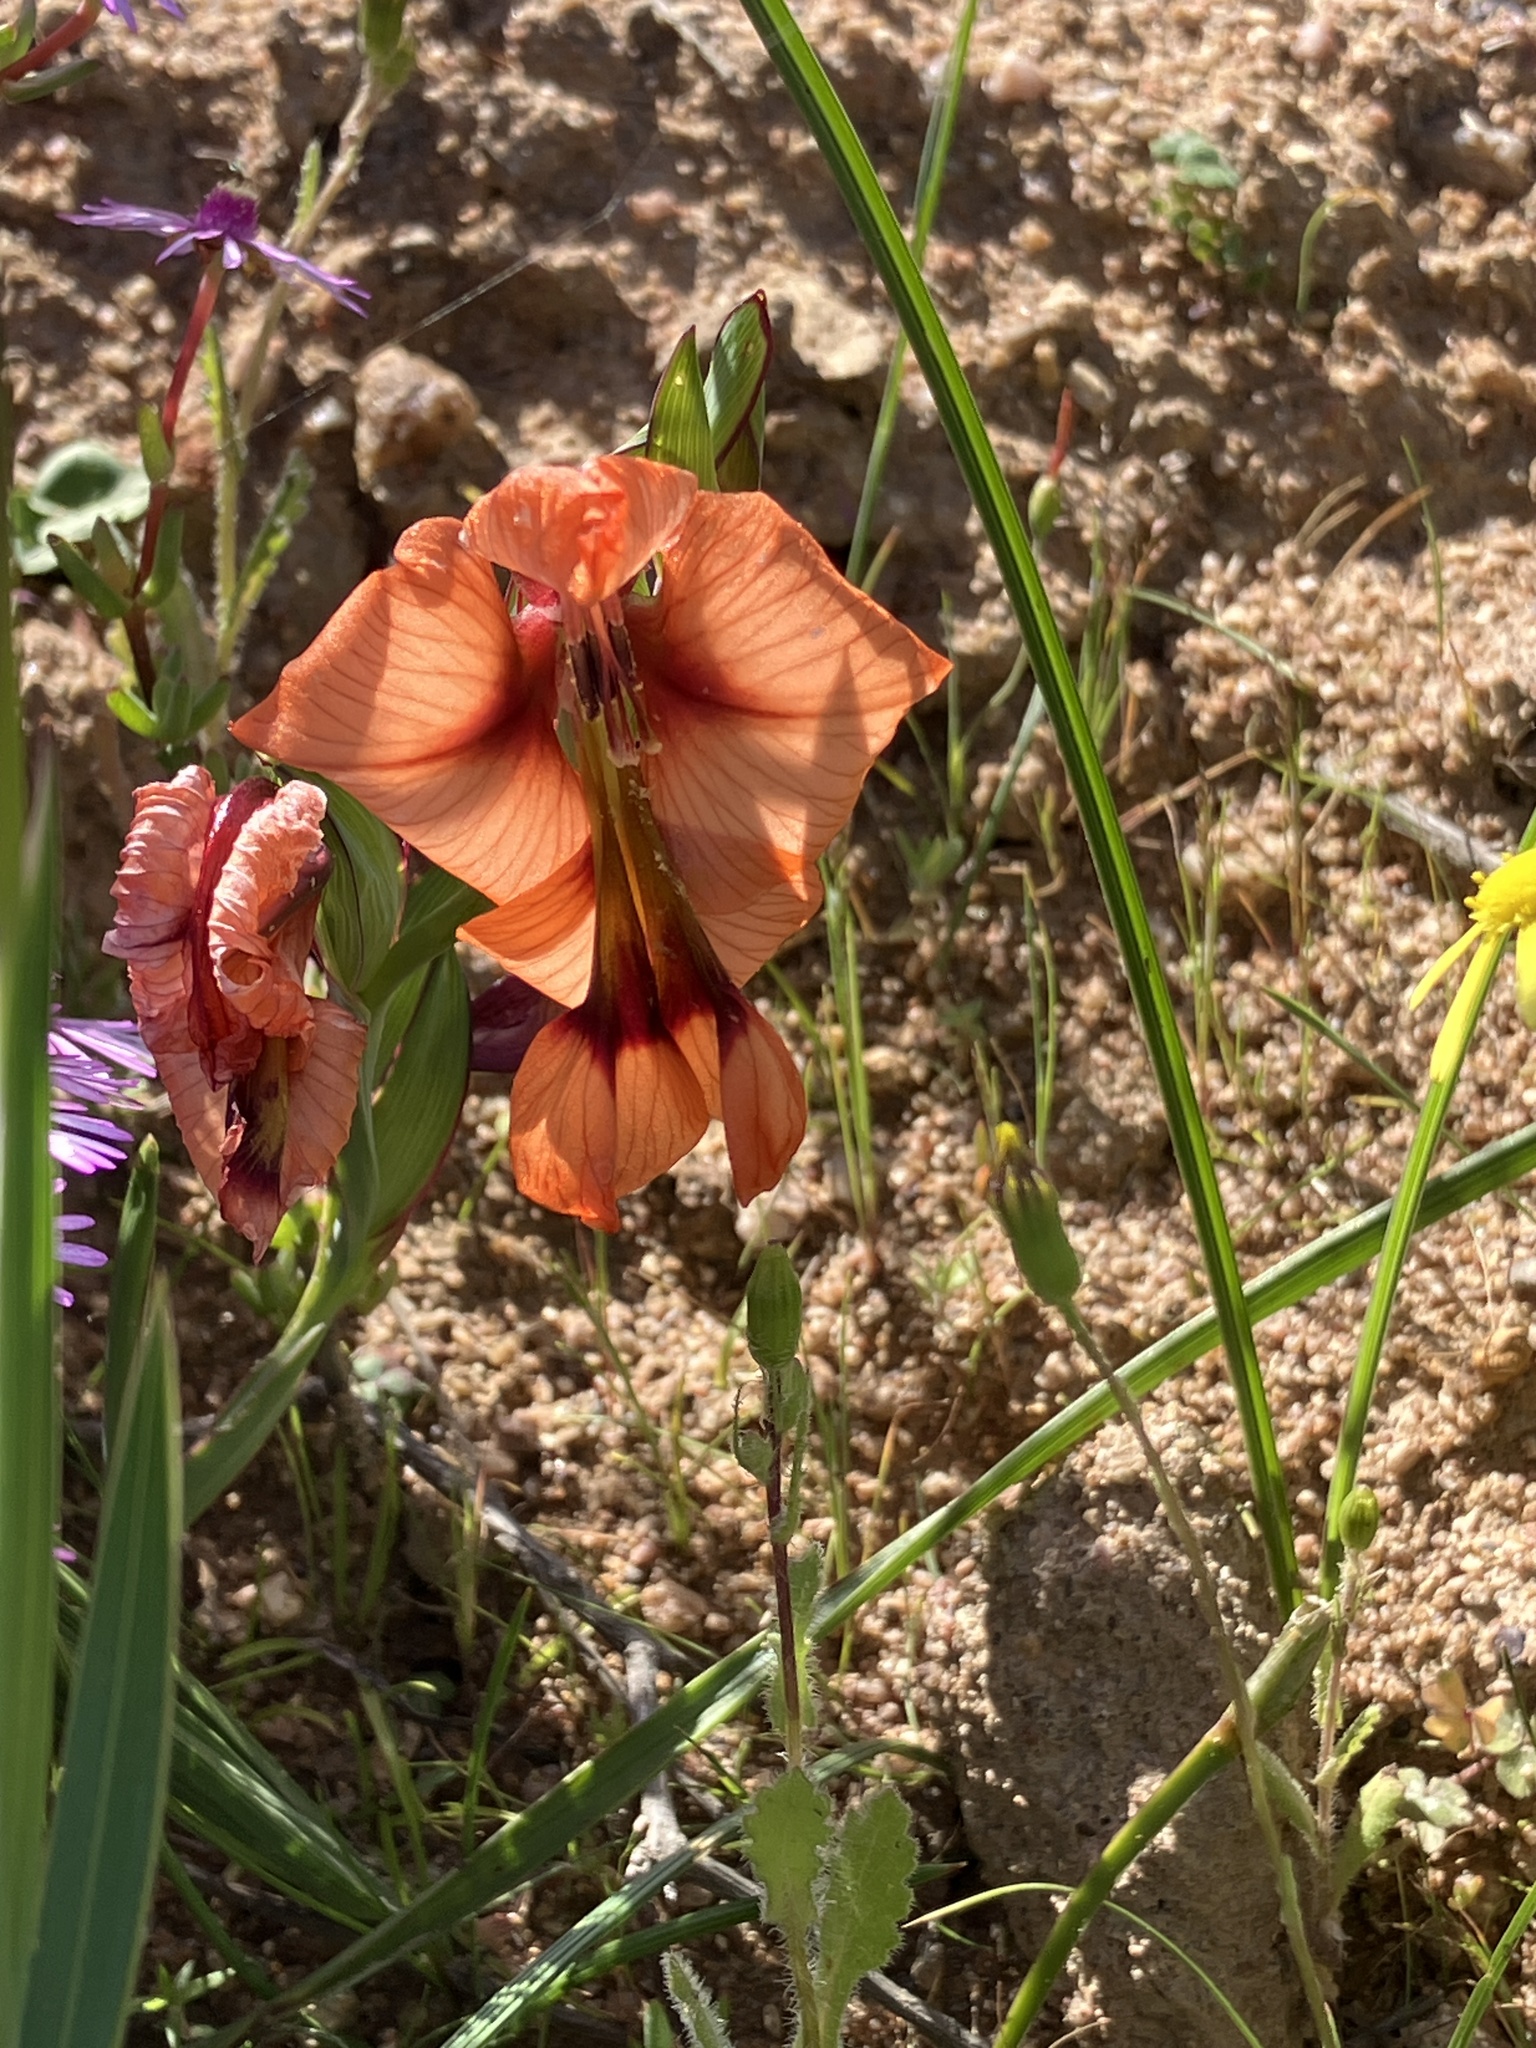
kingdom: Plantae
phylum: Tracheophyta
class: Liliopsida
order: Asparagales
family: Iridaceae
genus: Gladiolus
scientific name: Gladiolus meliusculus
